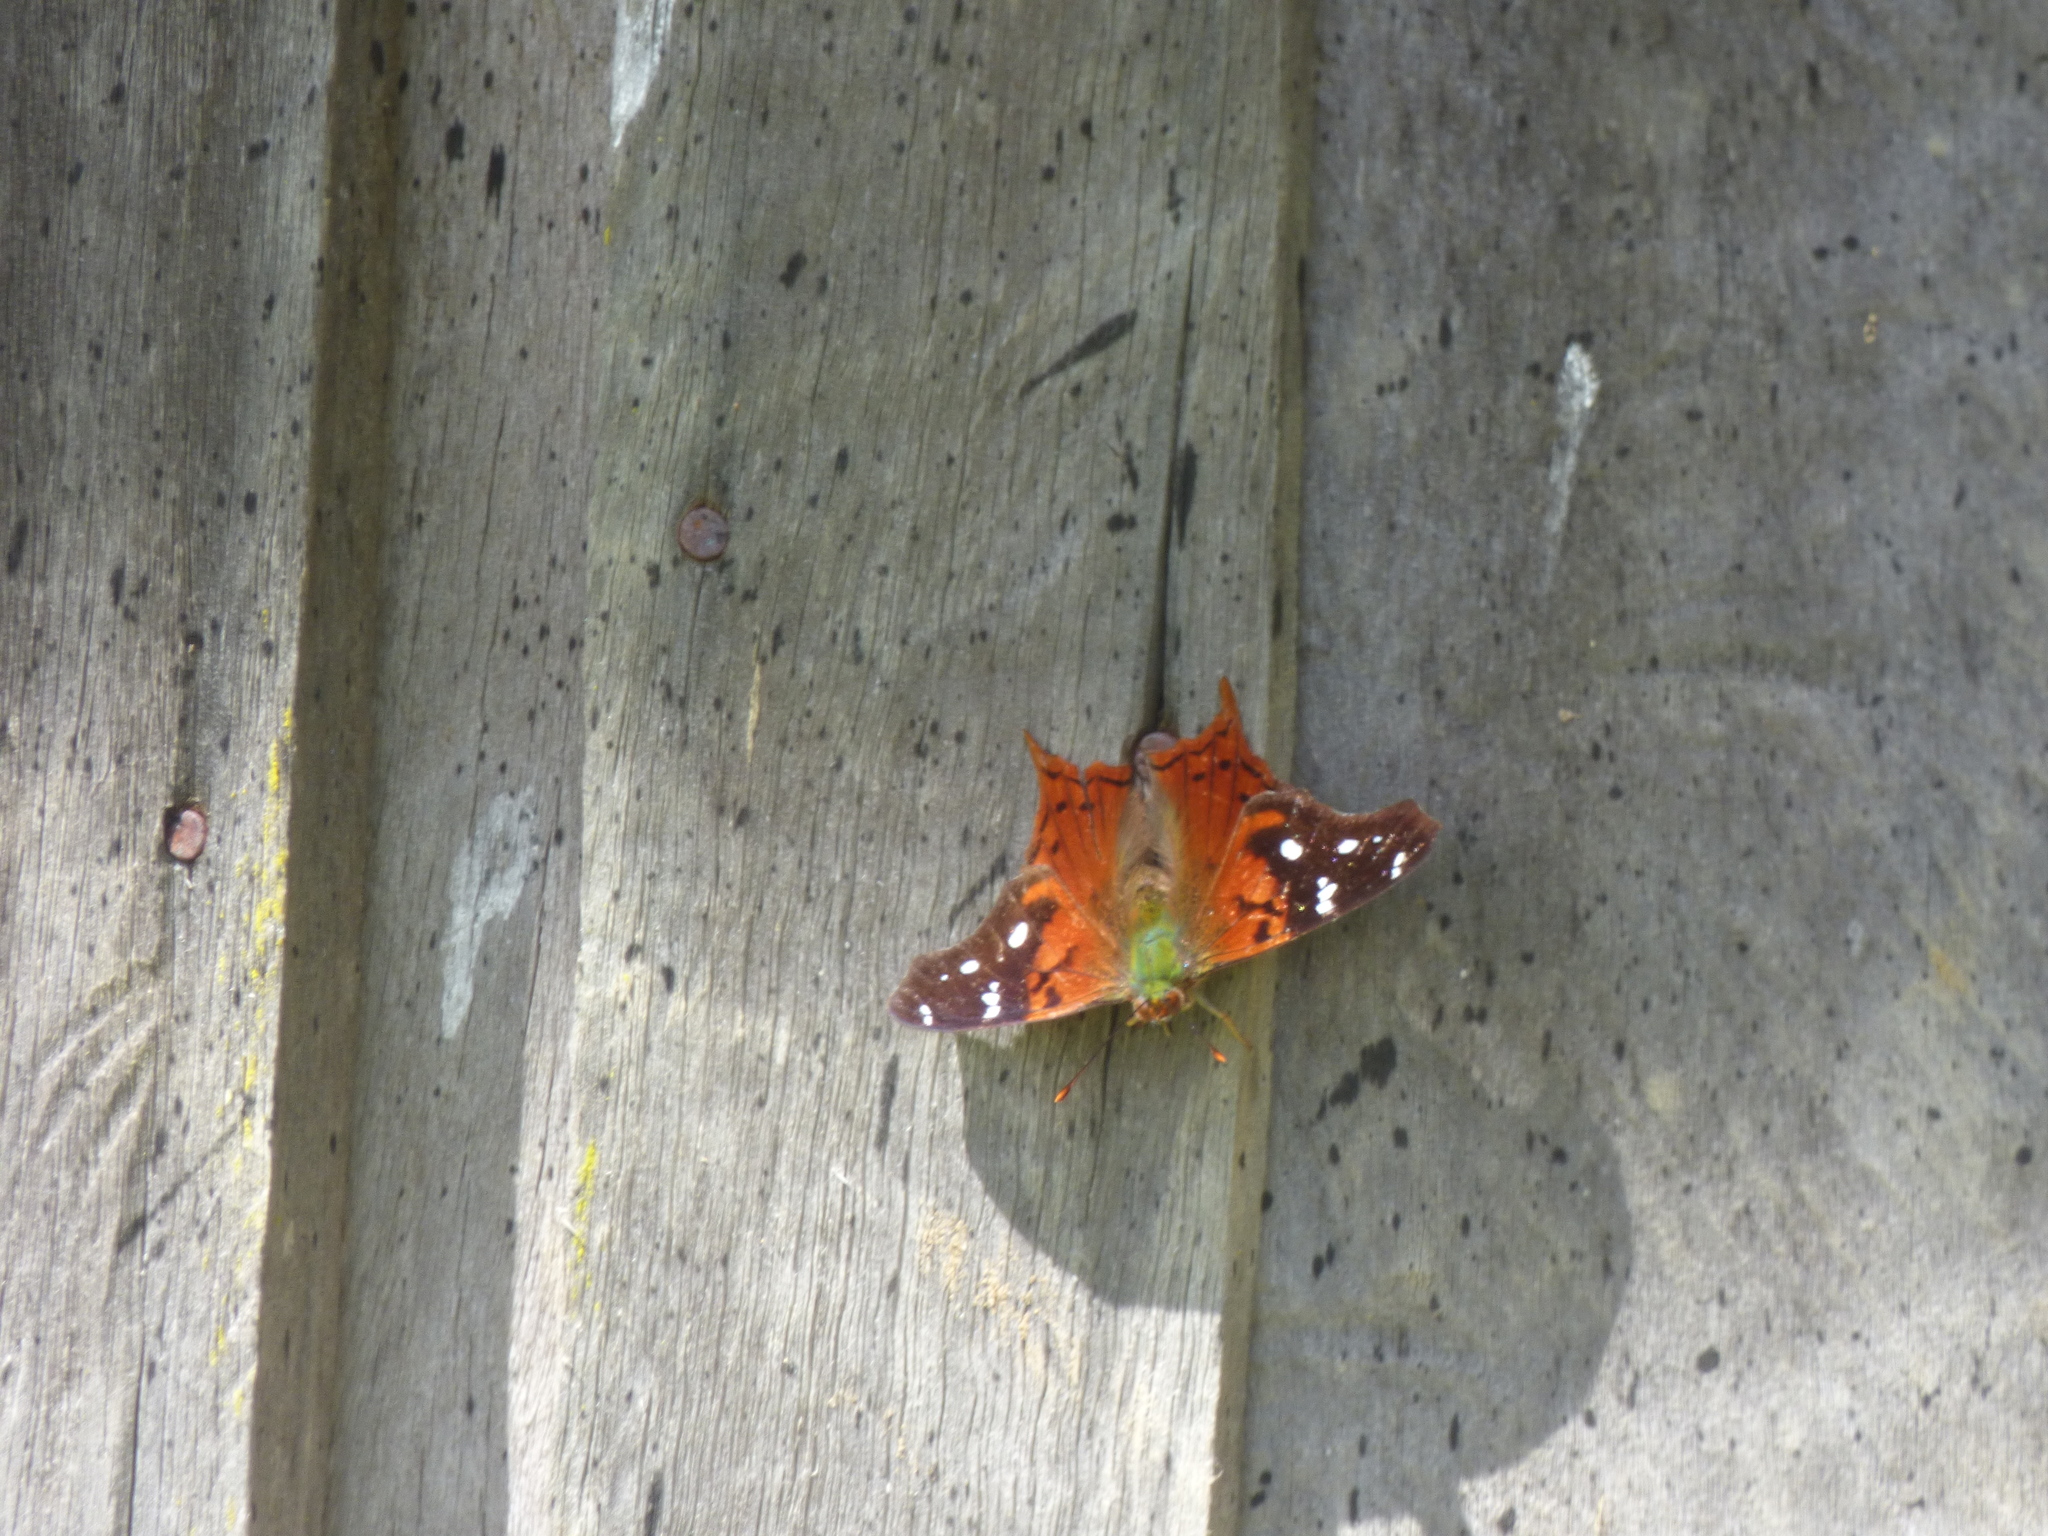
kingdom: Animalia
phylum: Arthropoda
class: Insecta
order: Lepidoptera
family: Nymphalidae
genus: Hypanartia
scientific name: Hypanartia kefersteini
